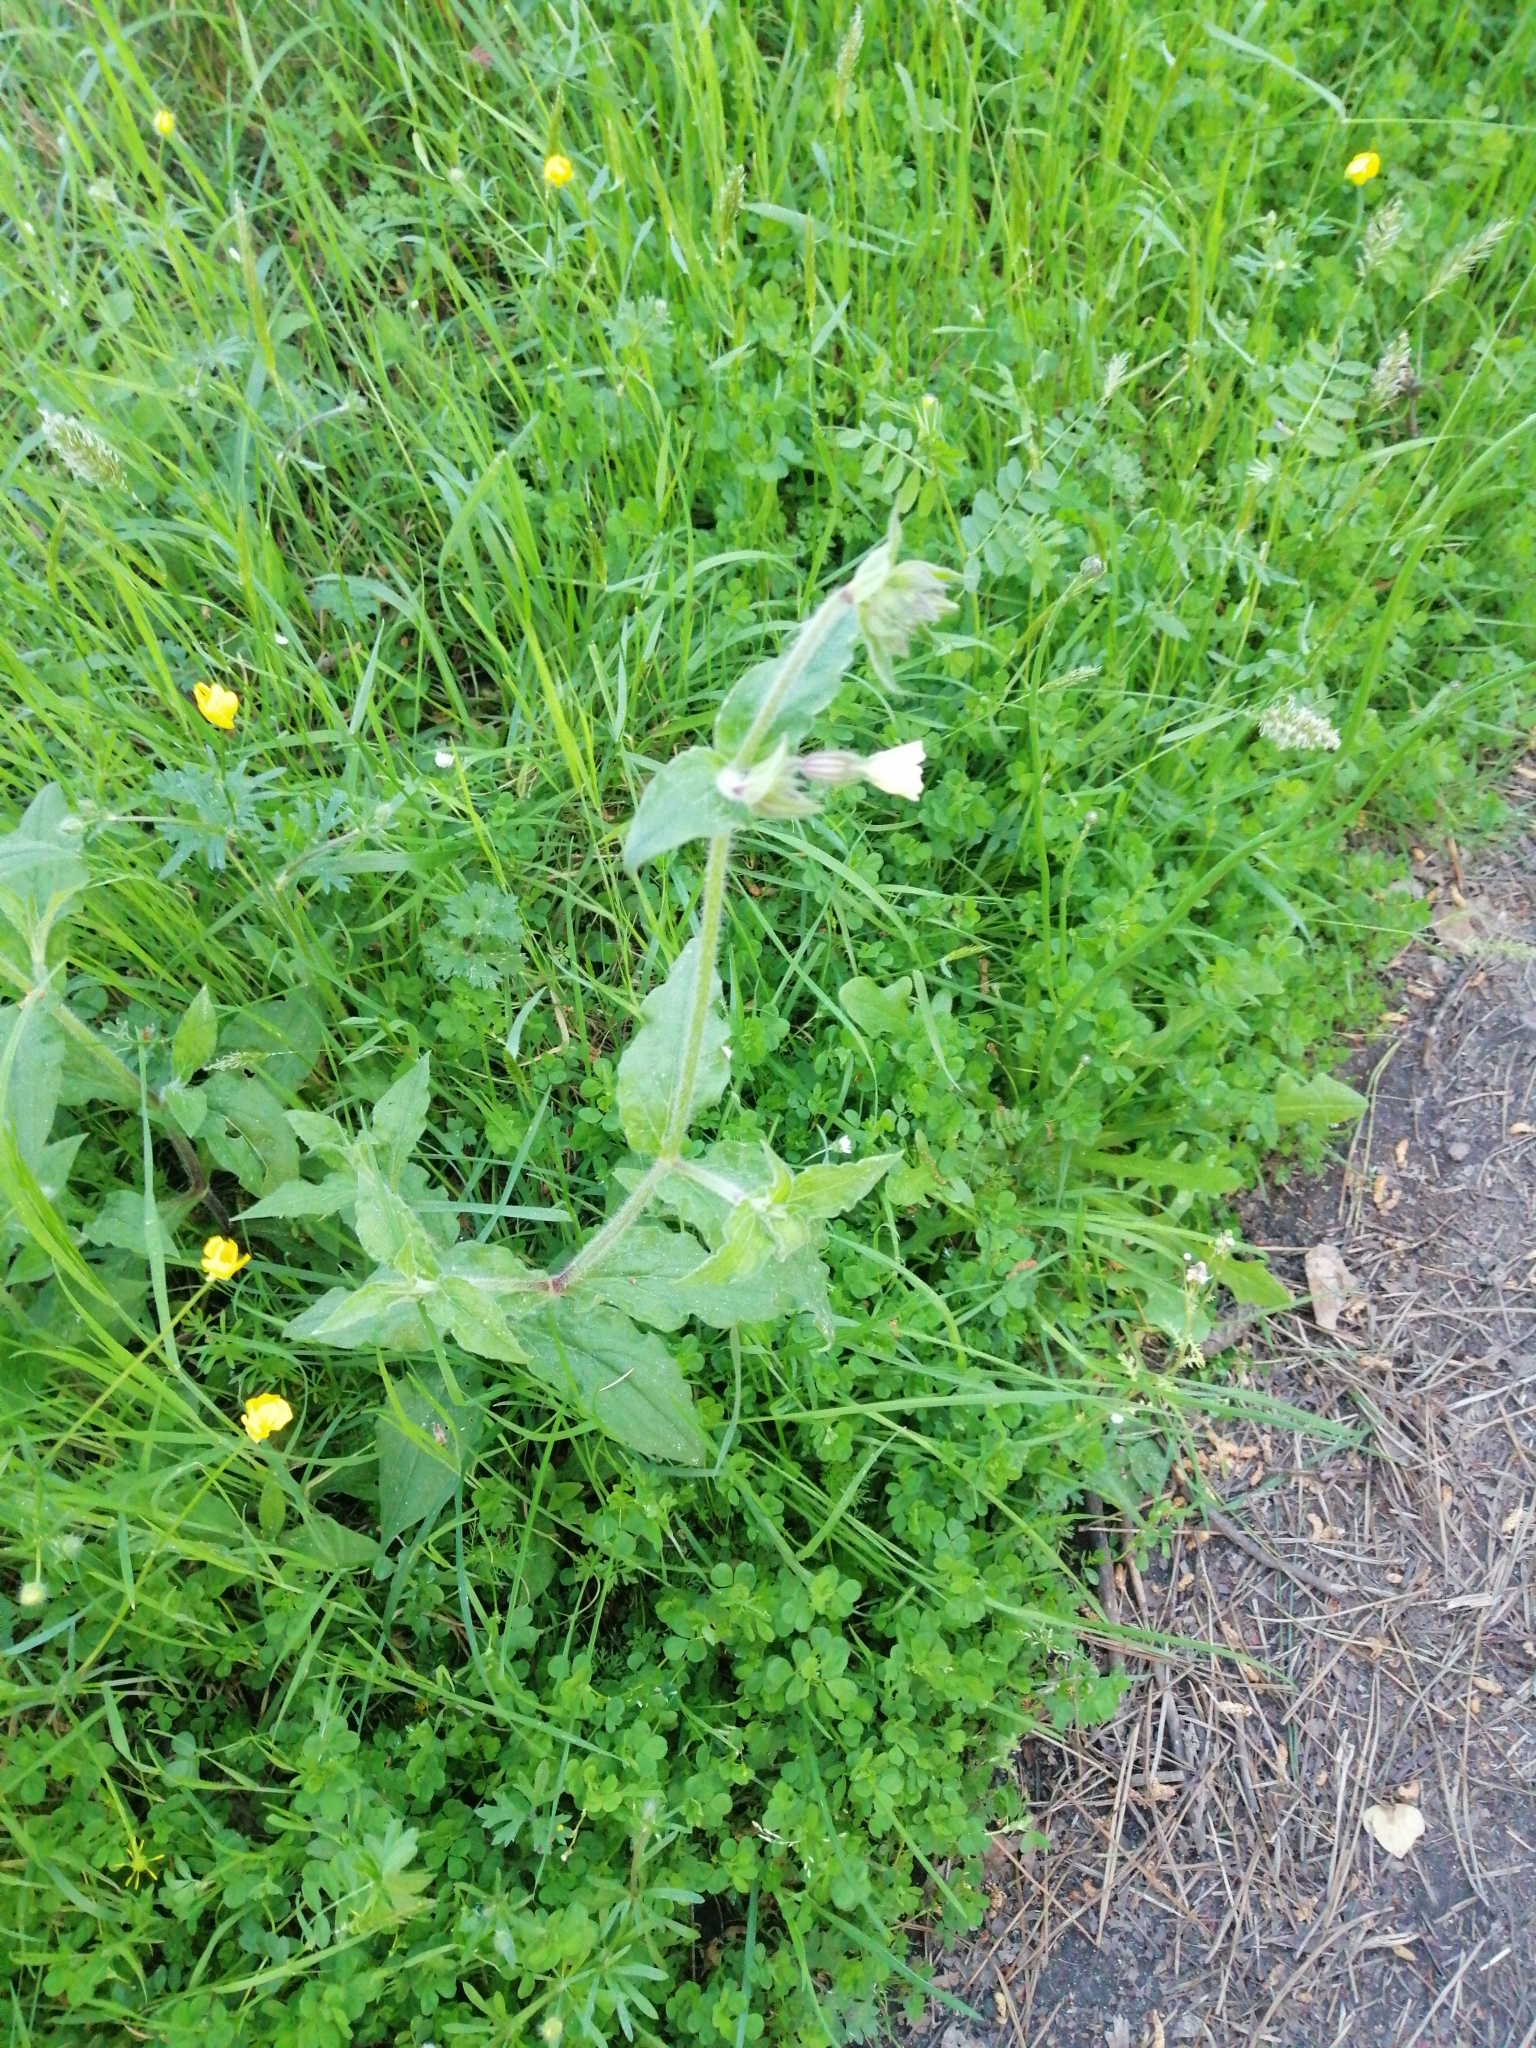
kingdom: Plantae
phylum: Tracheophyta
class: Magnoliopsida
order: Caryophyllales
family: Caryophyllaceae
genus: Silene
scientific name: Silene latifolia
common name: White campion
